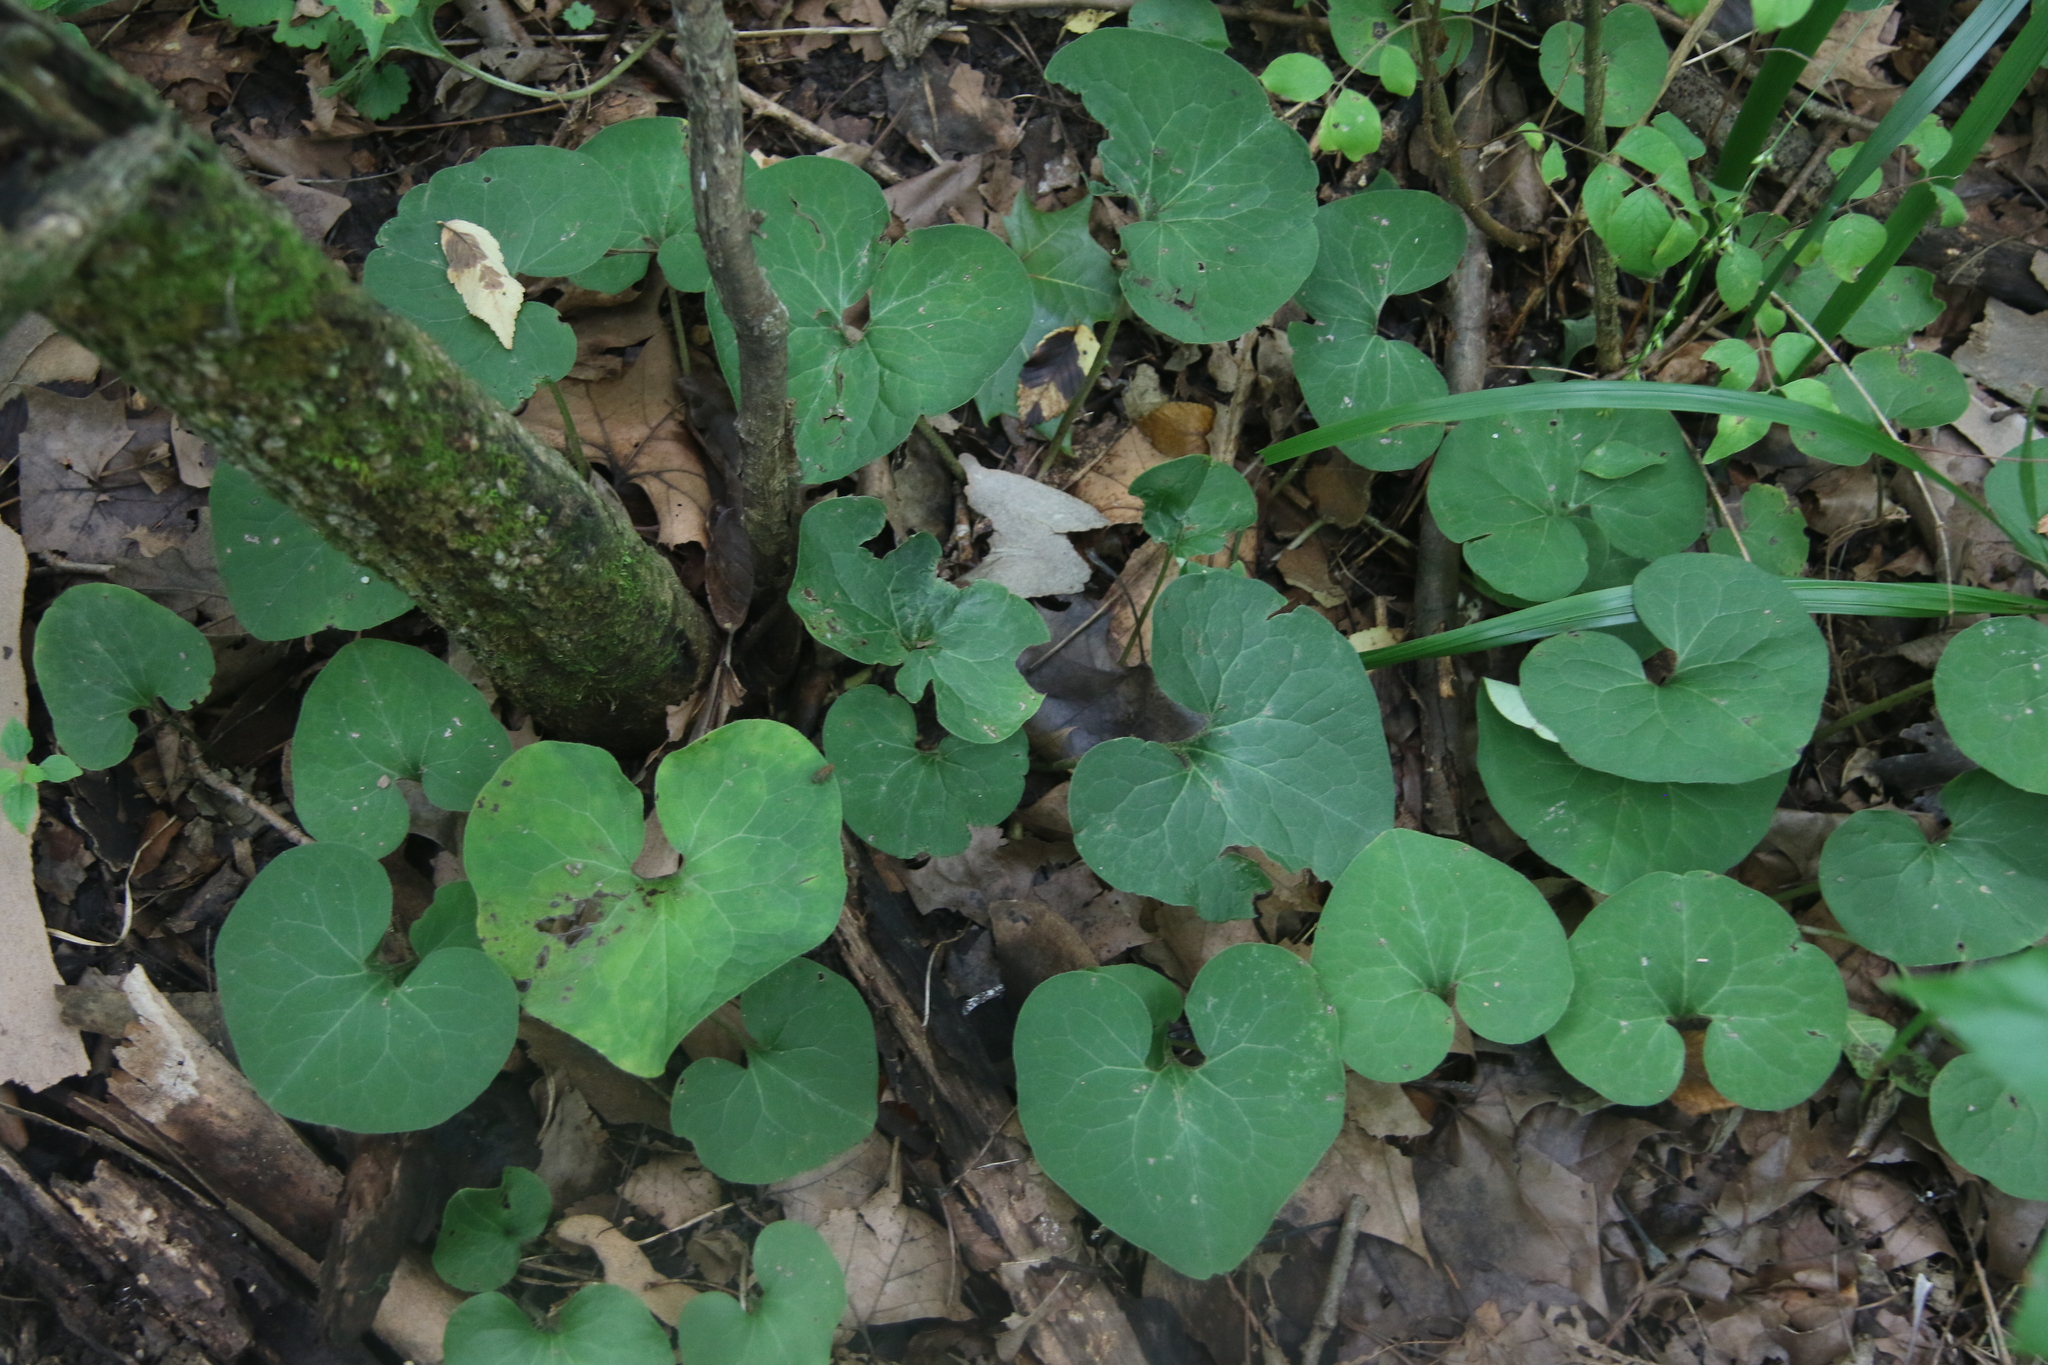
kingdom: Plantae
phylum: Tracheophyta
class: Magnoliopsida
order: Piperales
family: Aristolochiaceae
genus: Asarum
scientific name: Asarum canadense
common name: Wild ginger
